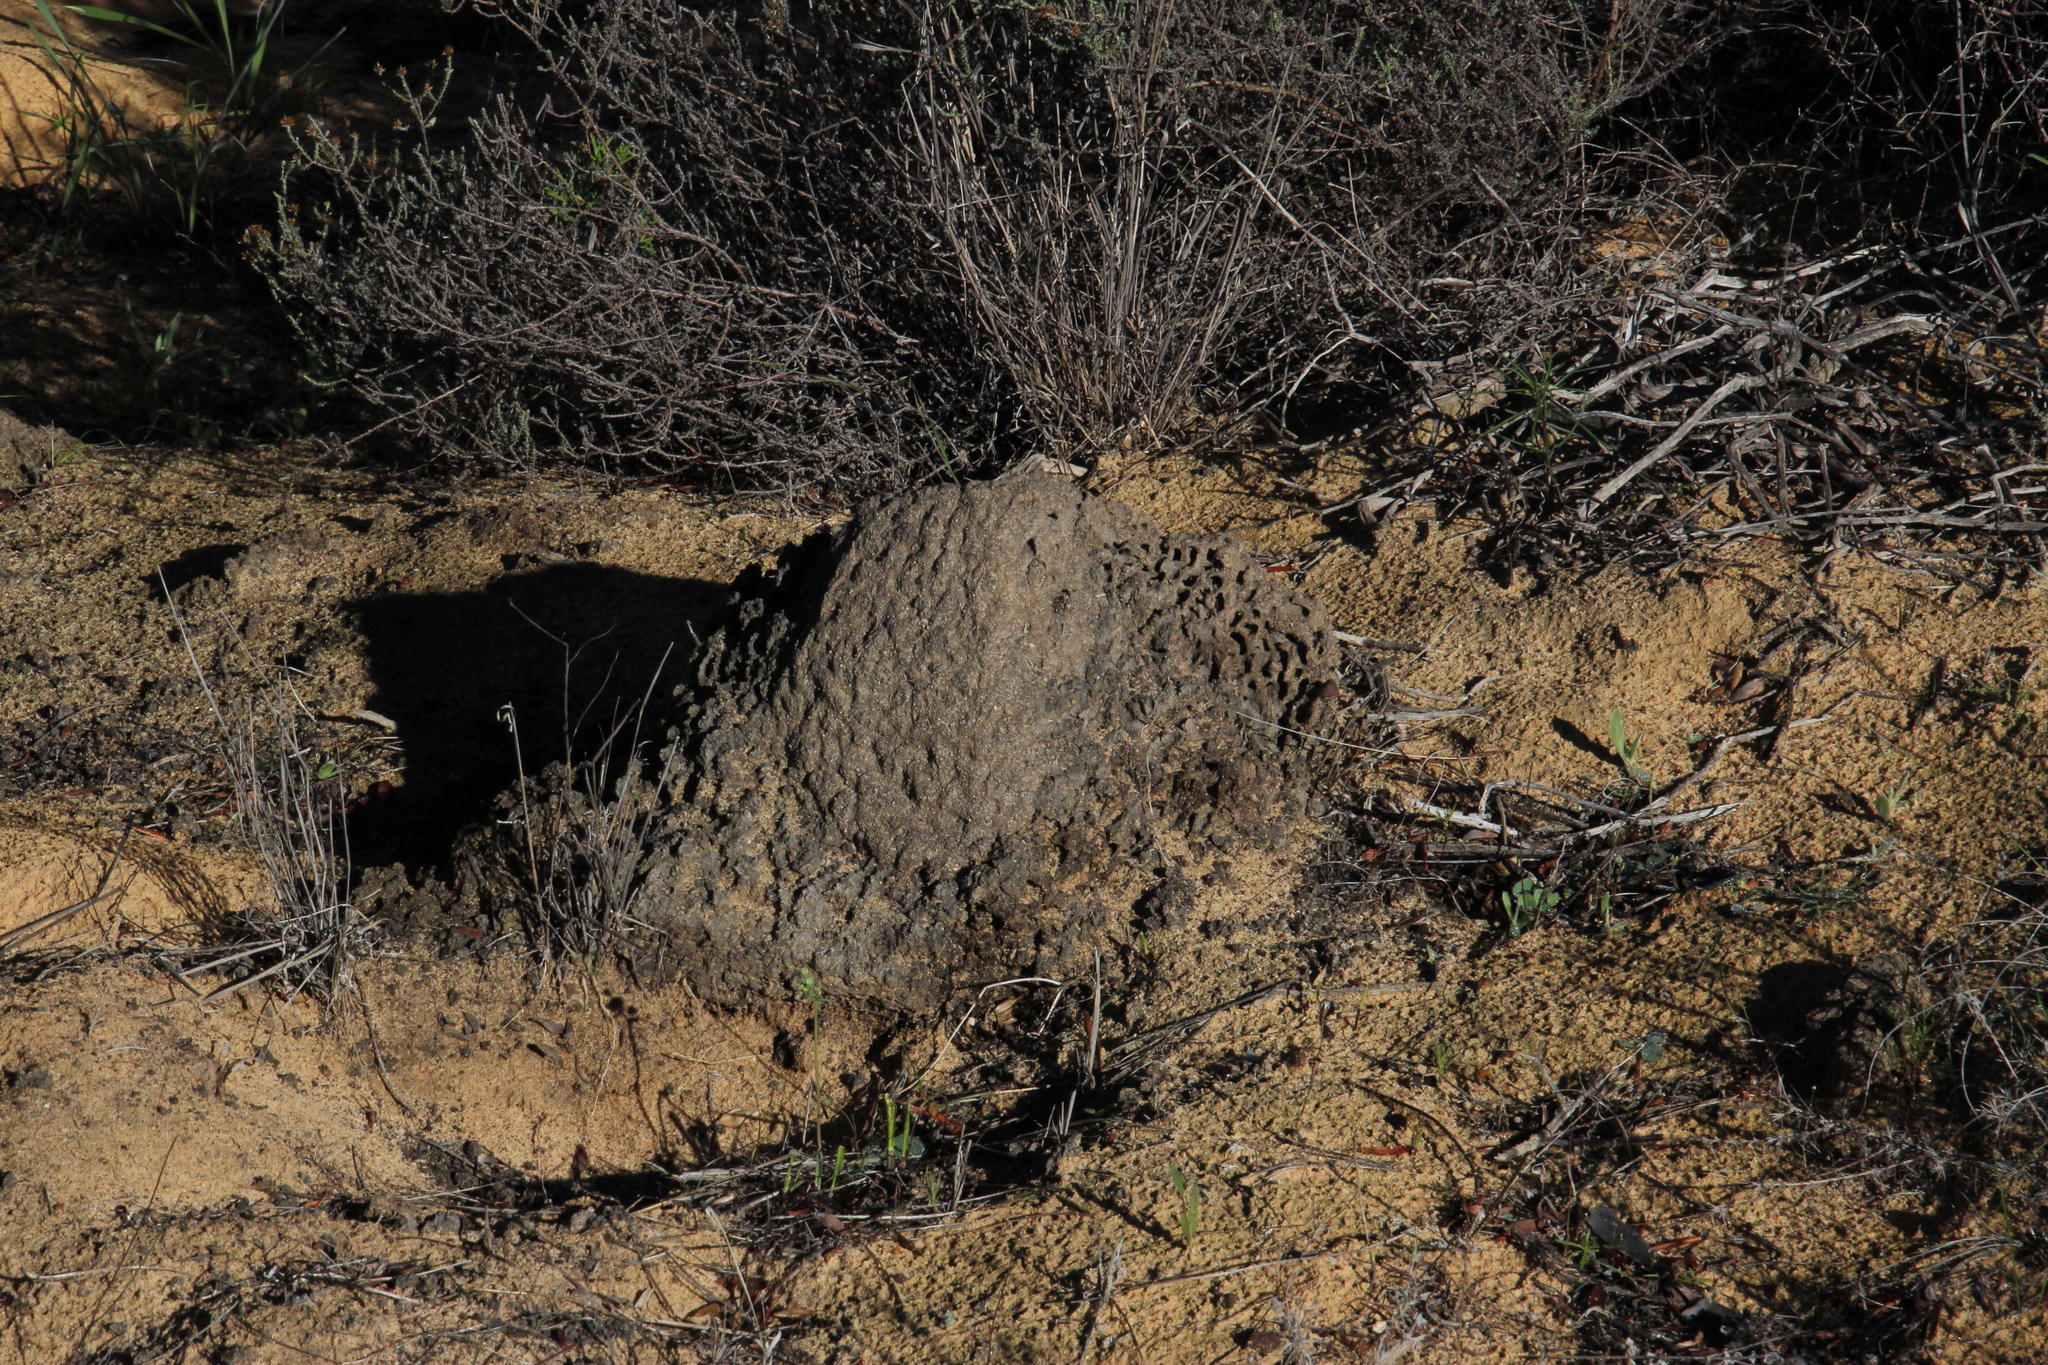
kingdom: Animalia
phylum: Arthropoda
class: Insecta
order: Blattodea
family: Termitidae
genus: Amitermes
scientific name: Amitermes hastatus
